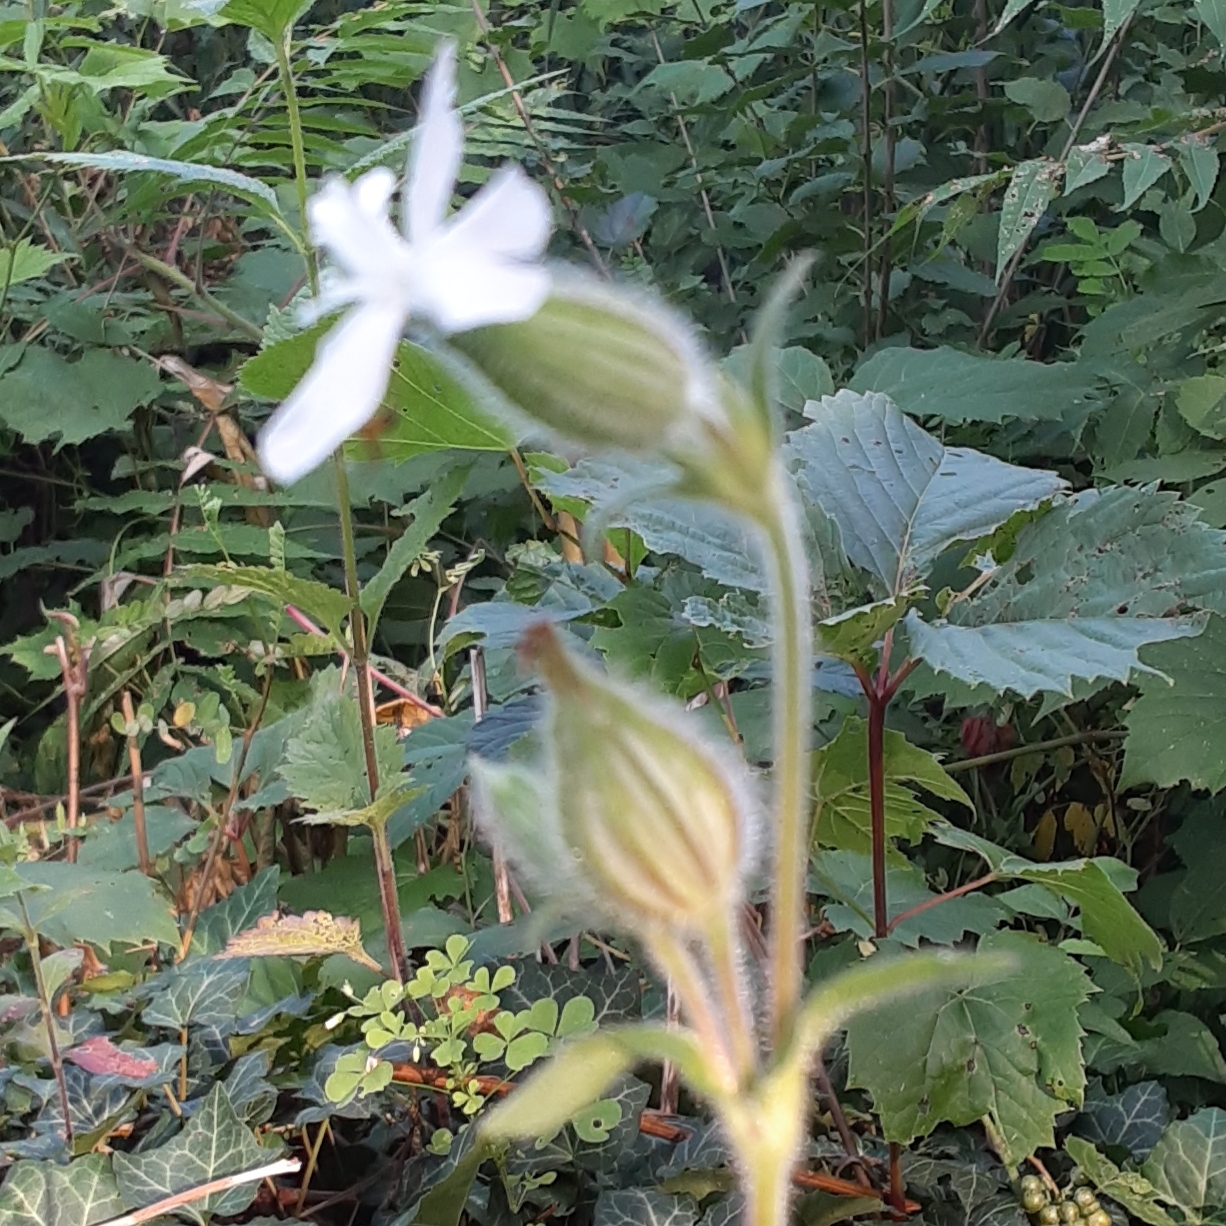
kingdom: Plantae
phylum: Tracheophyta
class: Magnoliopsida
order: Caryophyllales
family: Caryophyllaceae
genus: Silene
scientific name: Silene latifolia
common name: White campion
